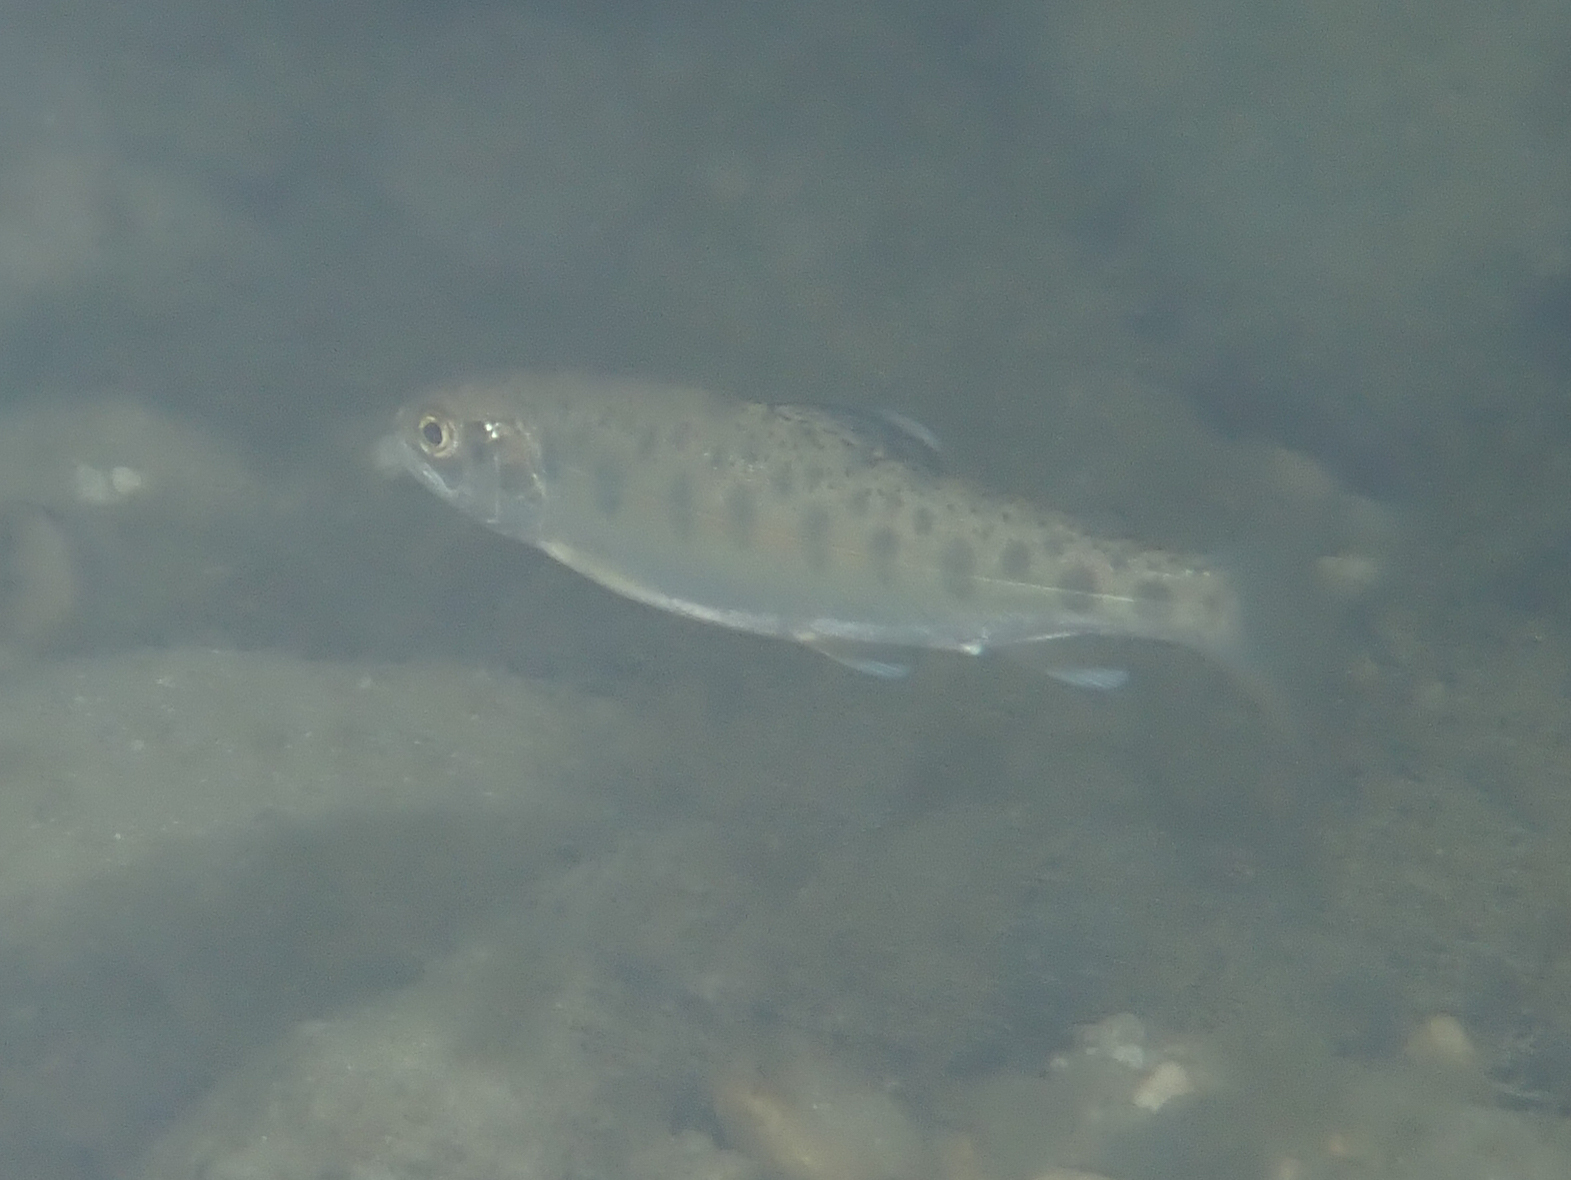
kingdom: Animalia
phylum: Chordata
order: Salmoniformes
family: Salmonidae
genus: Salmo
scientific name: Salmo trutta
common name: Brown trout
